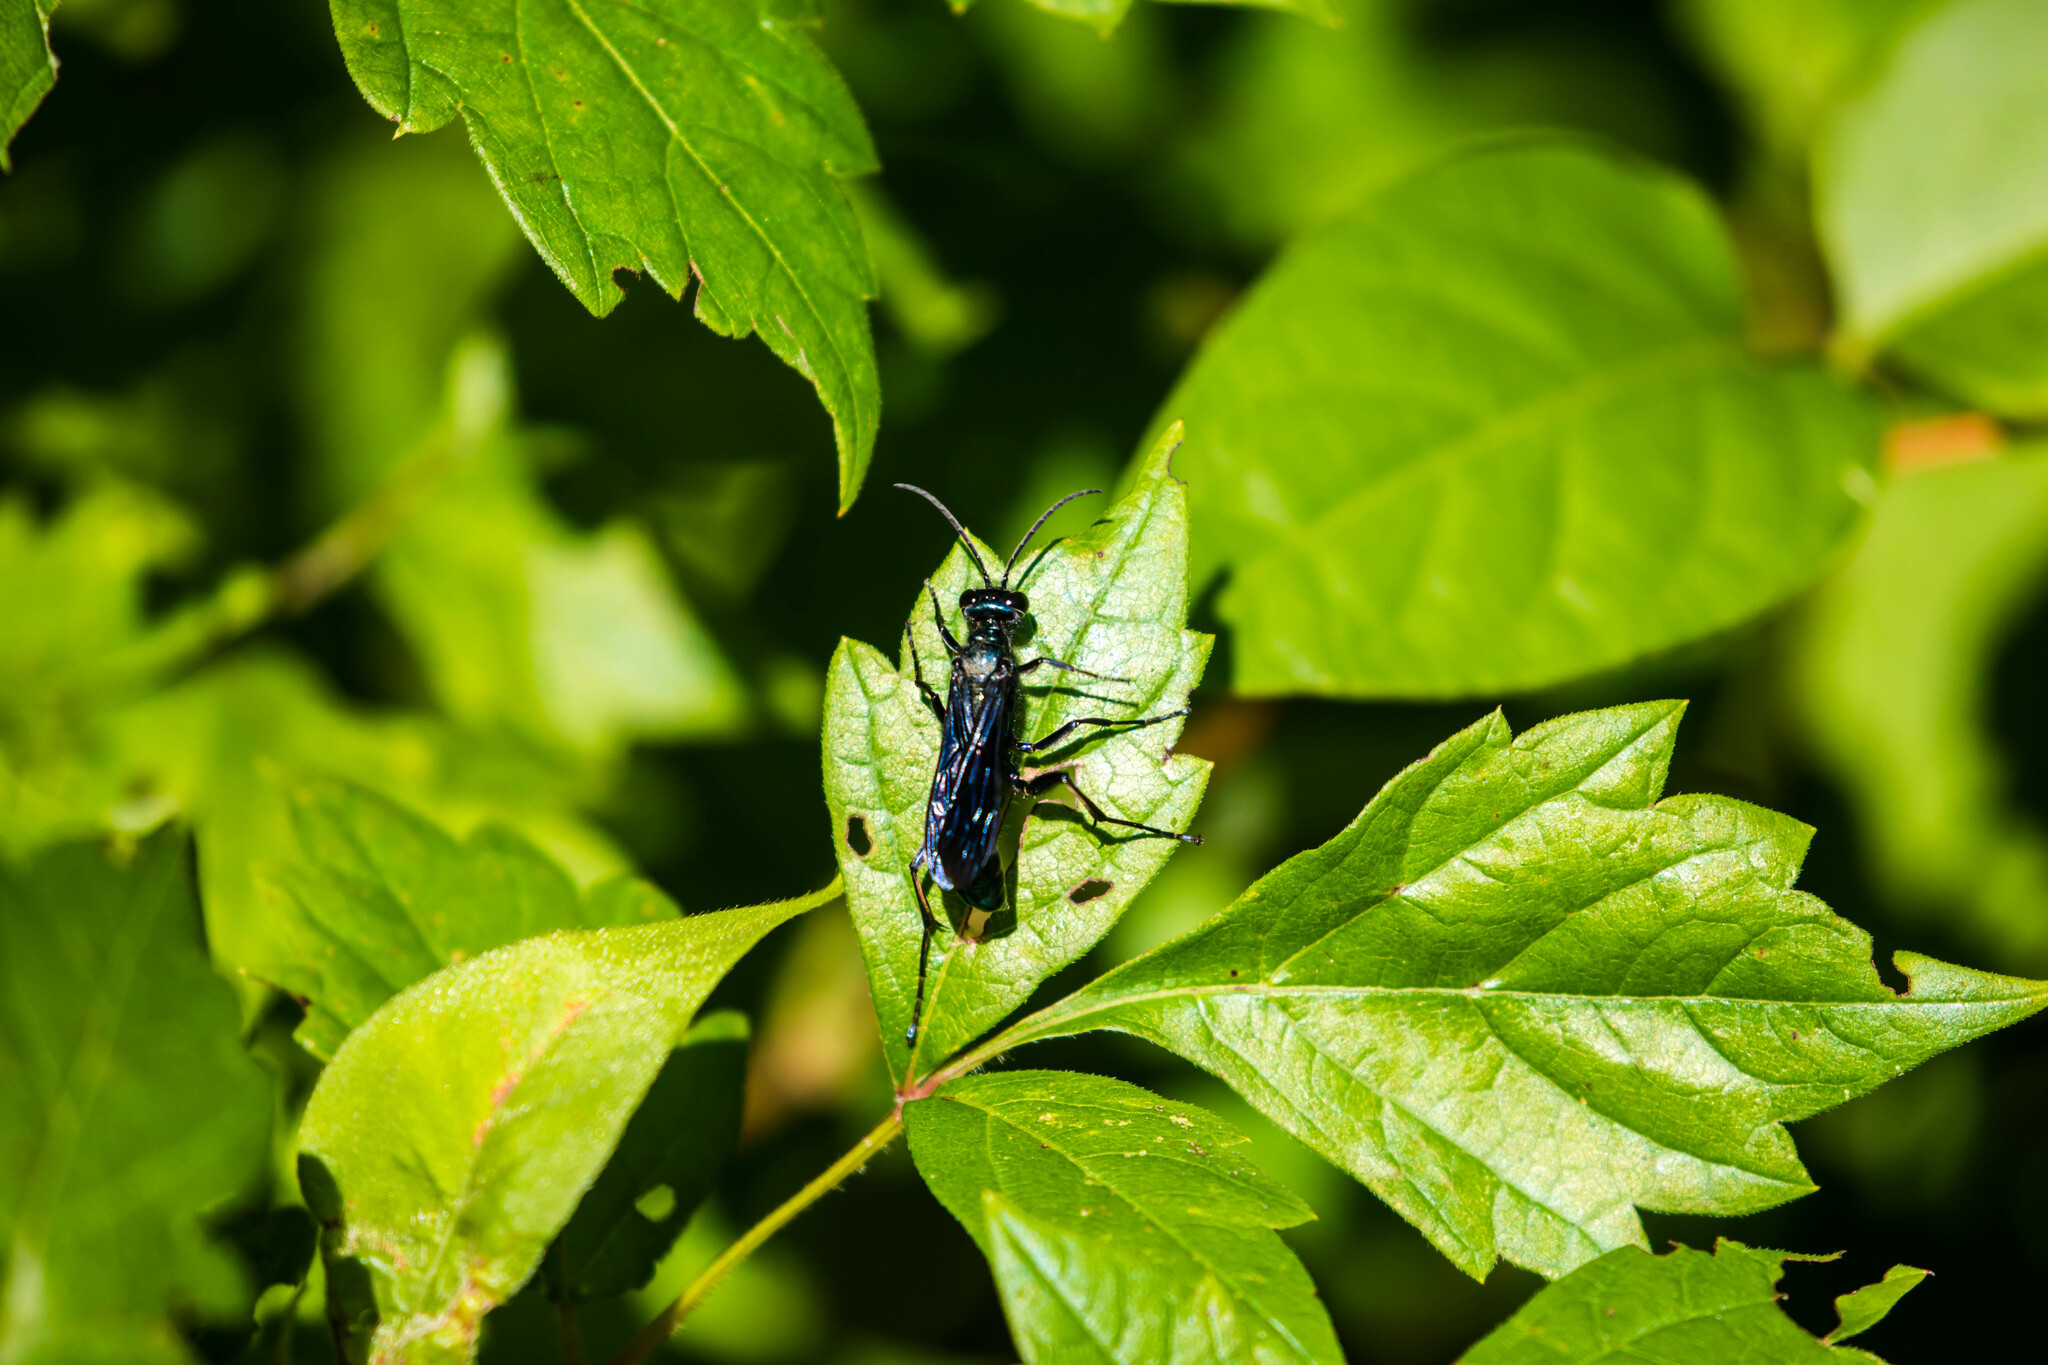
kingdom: Animalia
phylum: Arthropoda
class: Insecta
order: Hymenoptera
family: Sphecidae
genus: Chalybion
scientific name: Chalybion californicum
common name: Mud dauber
